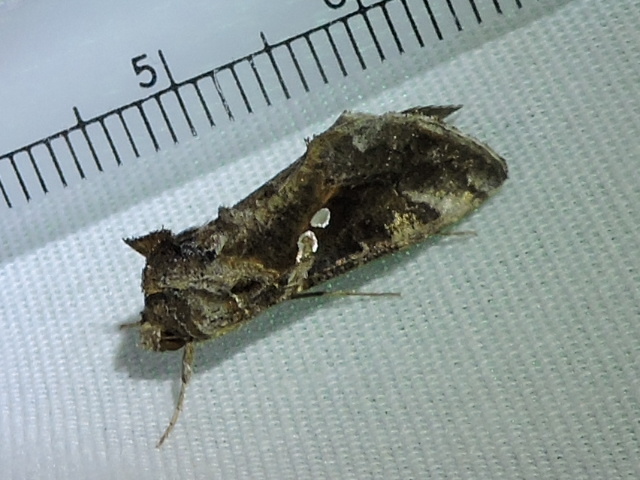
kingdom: Animalia
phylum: Arthropoda
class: Insecta
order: Lepidoptera
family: Noctuidae
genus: Chrysodeixis
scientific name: Chrysodeixis includens
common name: Cutworm moth
